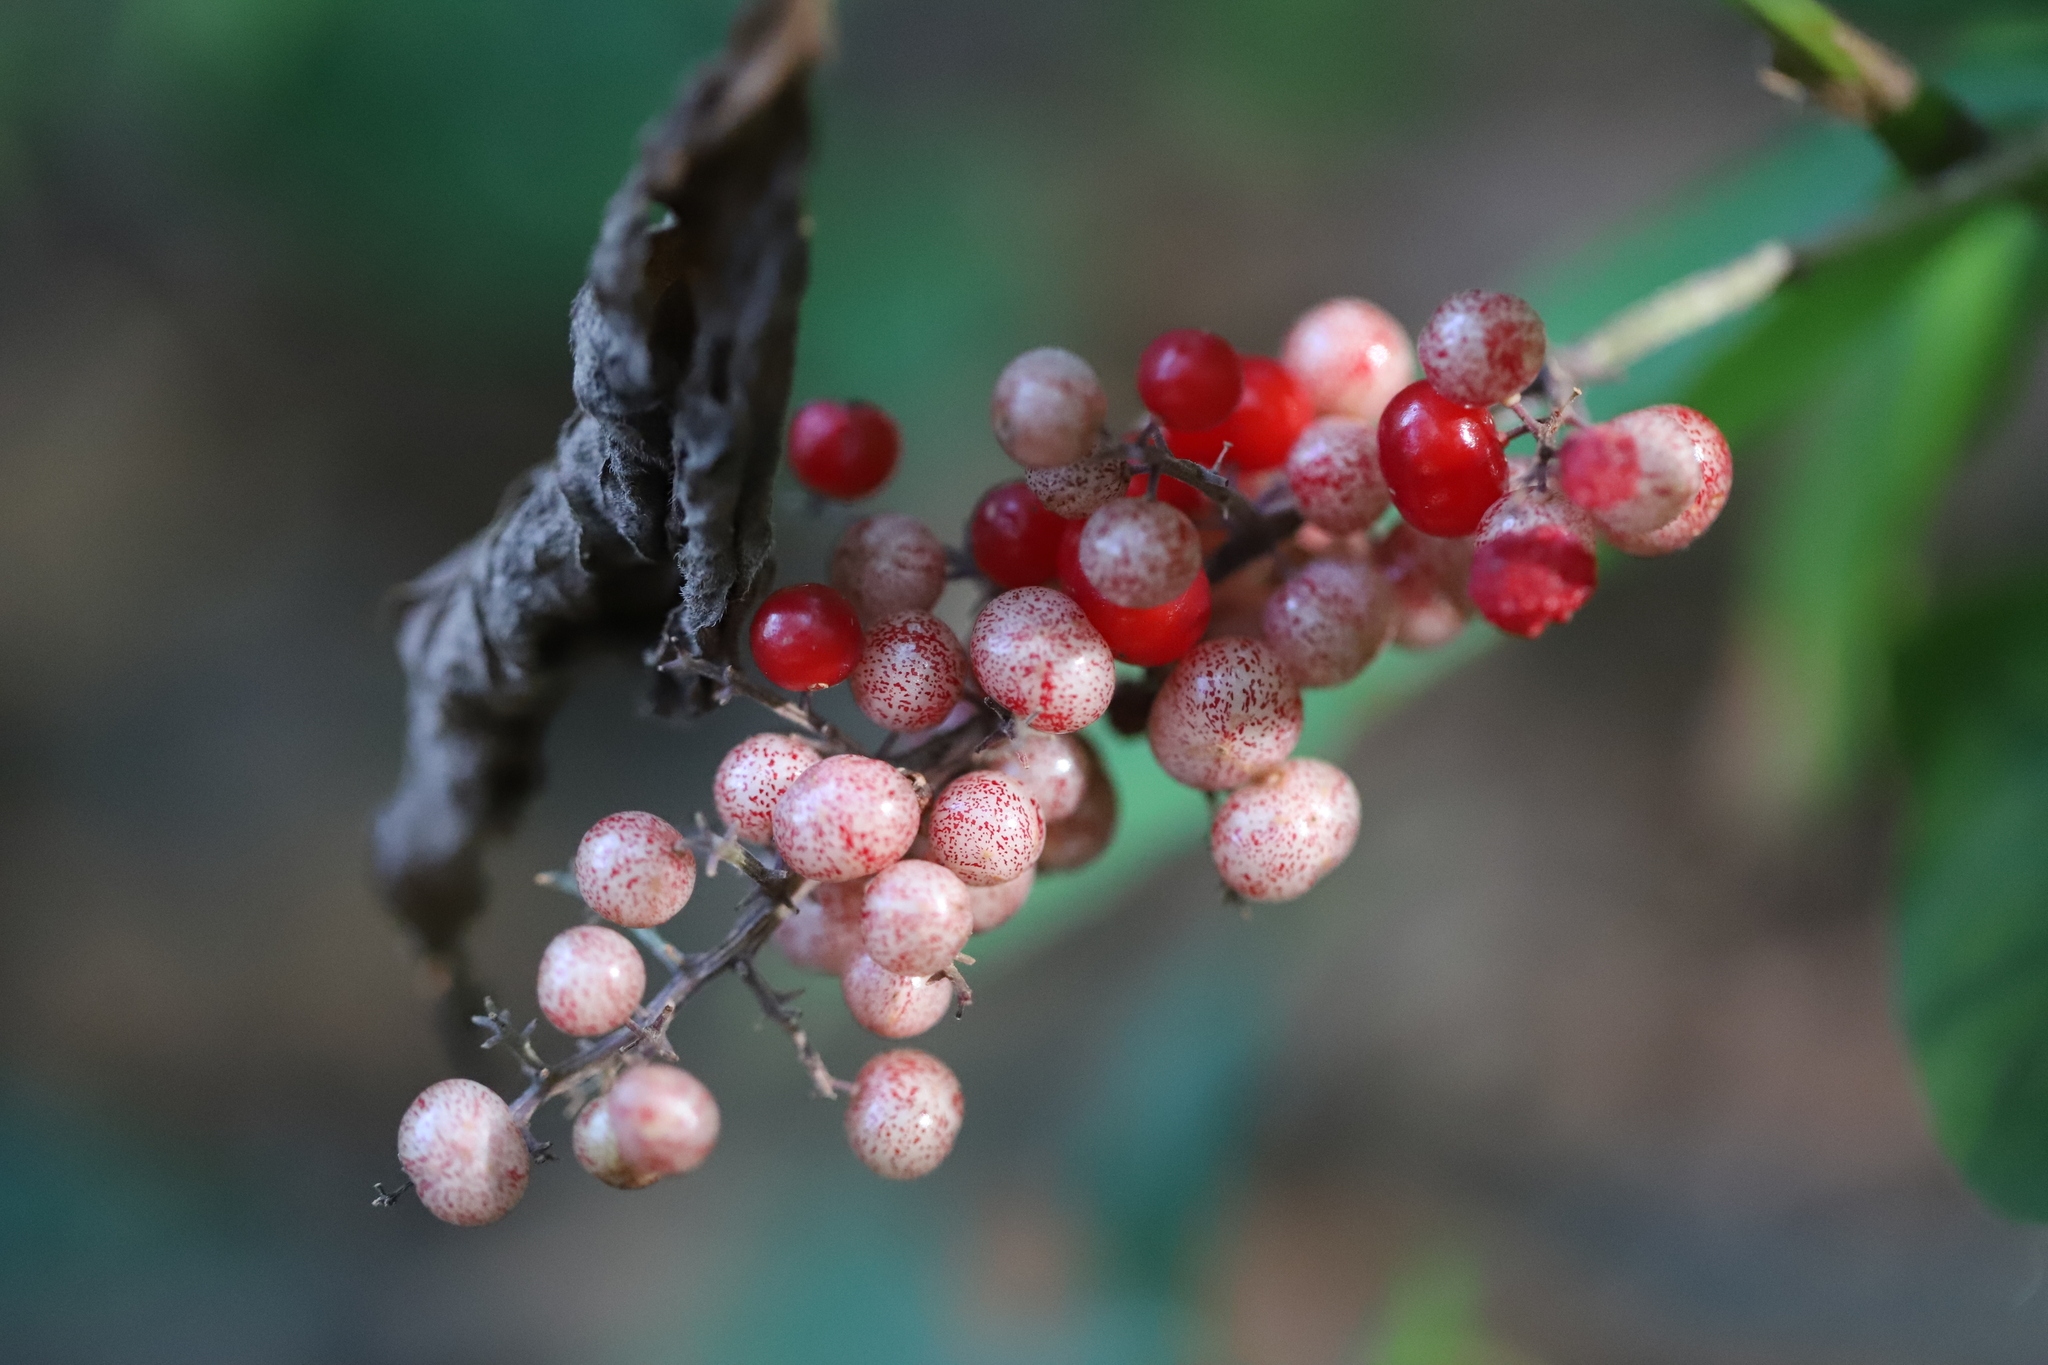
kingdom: Plantae
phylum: Tracheophyta
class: Liliopsida
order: Asparagales
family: Asparagaceae
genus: Maianthemum
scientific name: Maianthemum racemosum
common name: False spikenard
